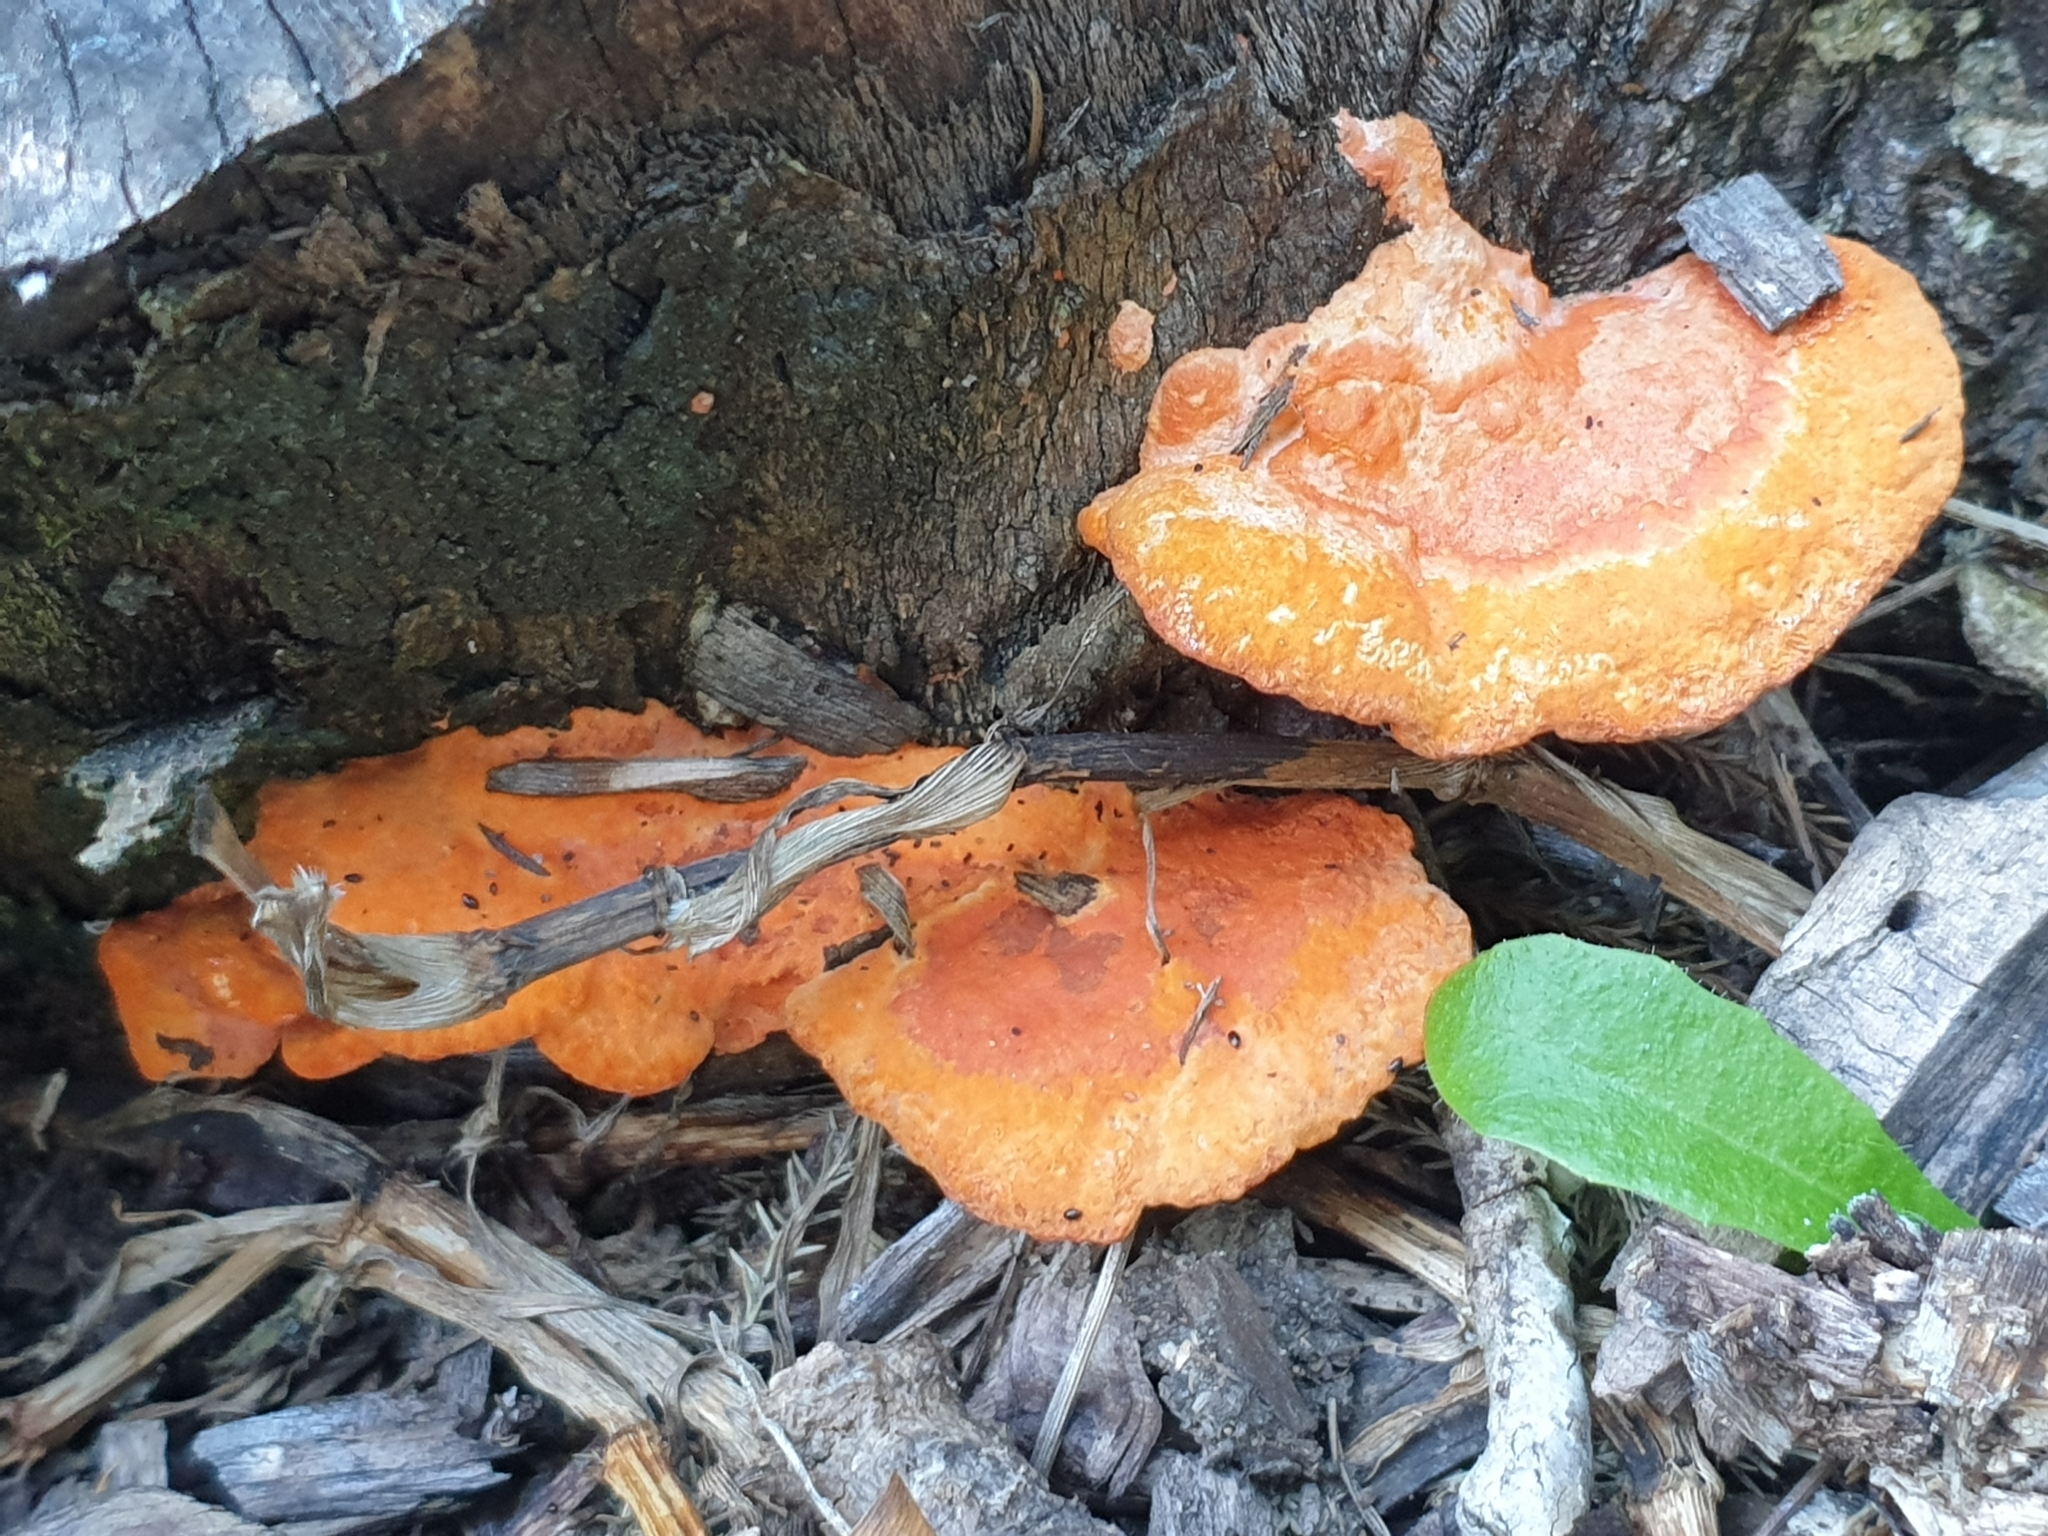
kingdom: Fungi
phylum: Basidiomycota
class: Agaricomycetes
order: Polyporales
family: Polyporaceae
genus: Trametes
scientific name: Trametes coccinea
